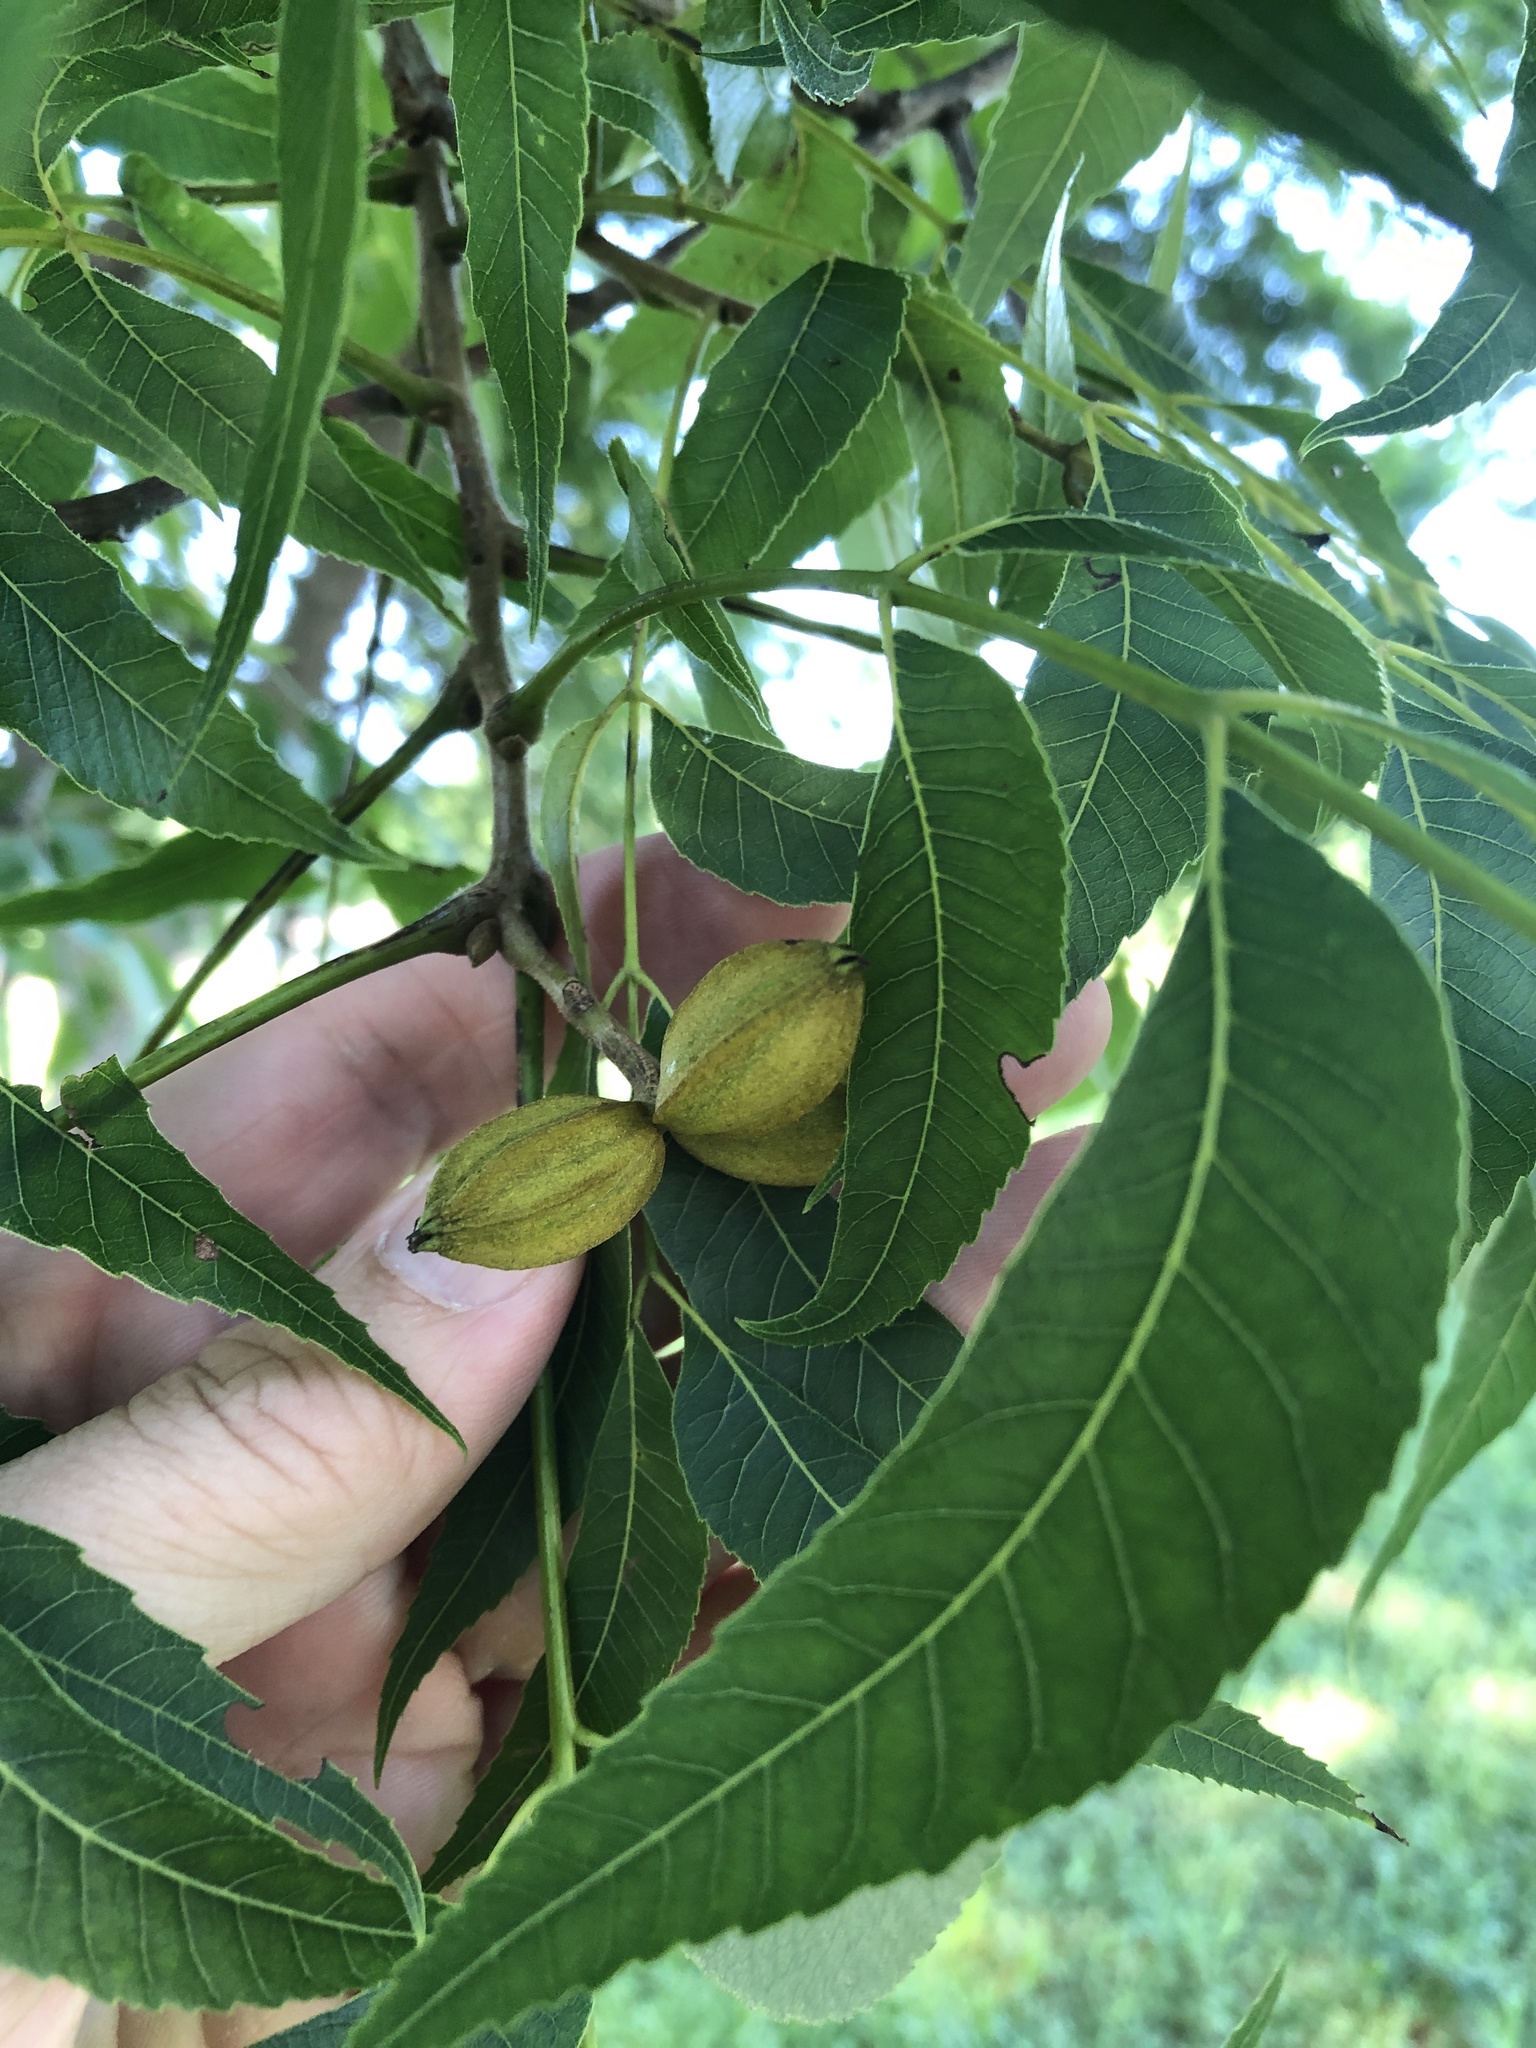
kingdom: Plantae
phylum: Tracheophyta
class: Magnoliopsida
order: Fagales
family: Juglandaceae
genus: Carya
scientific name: Carya illinoinensis
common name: Pecan
